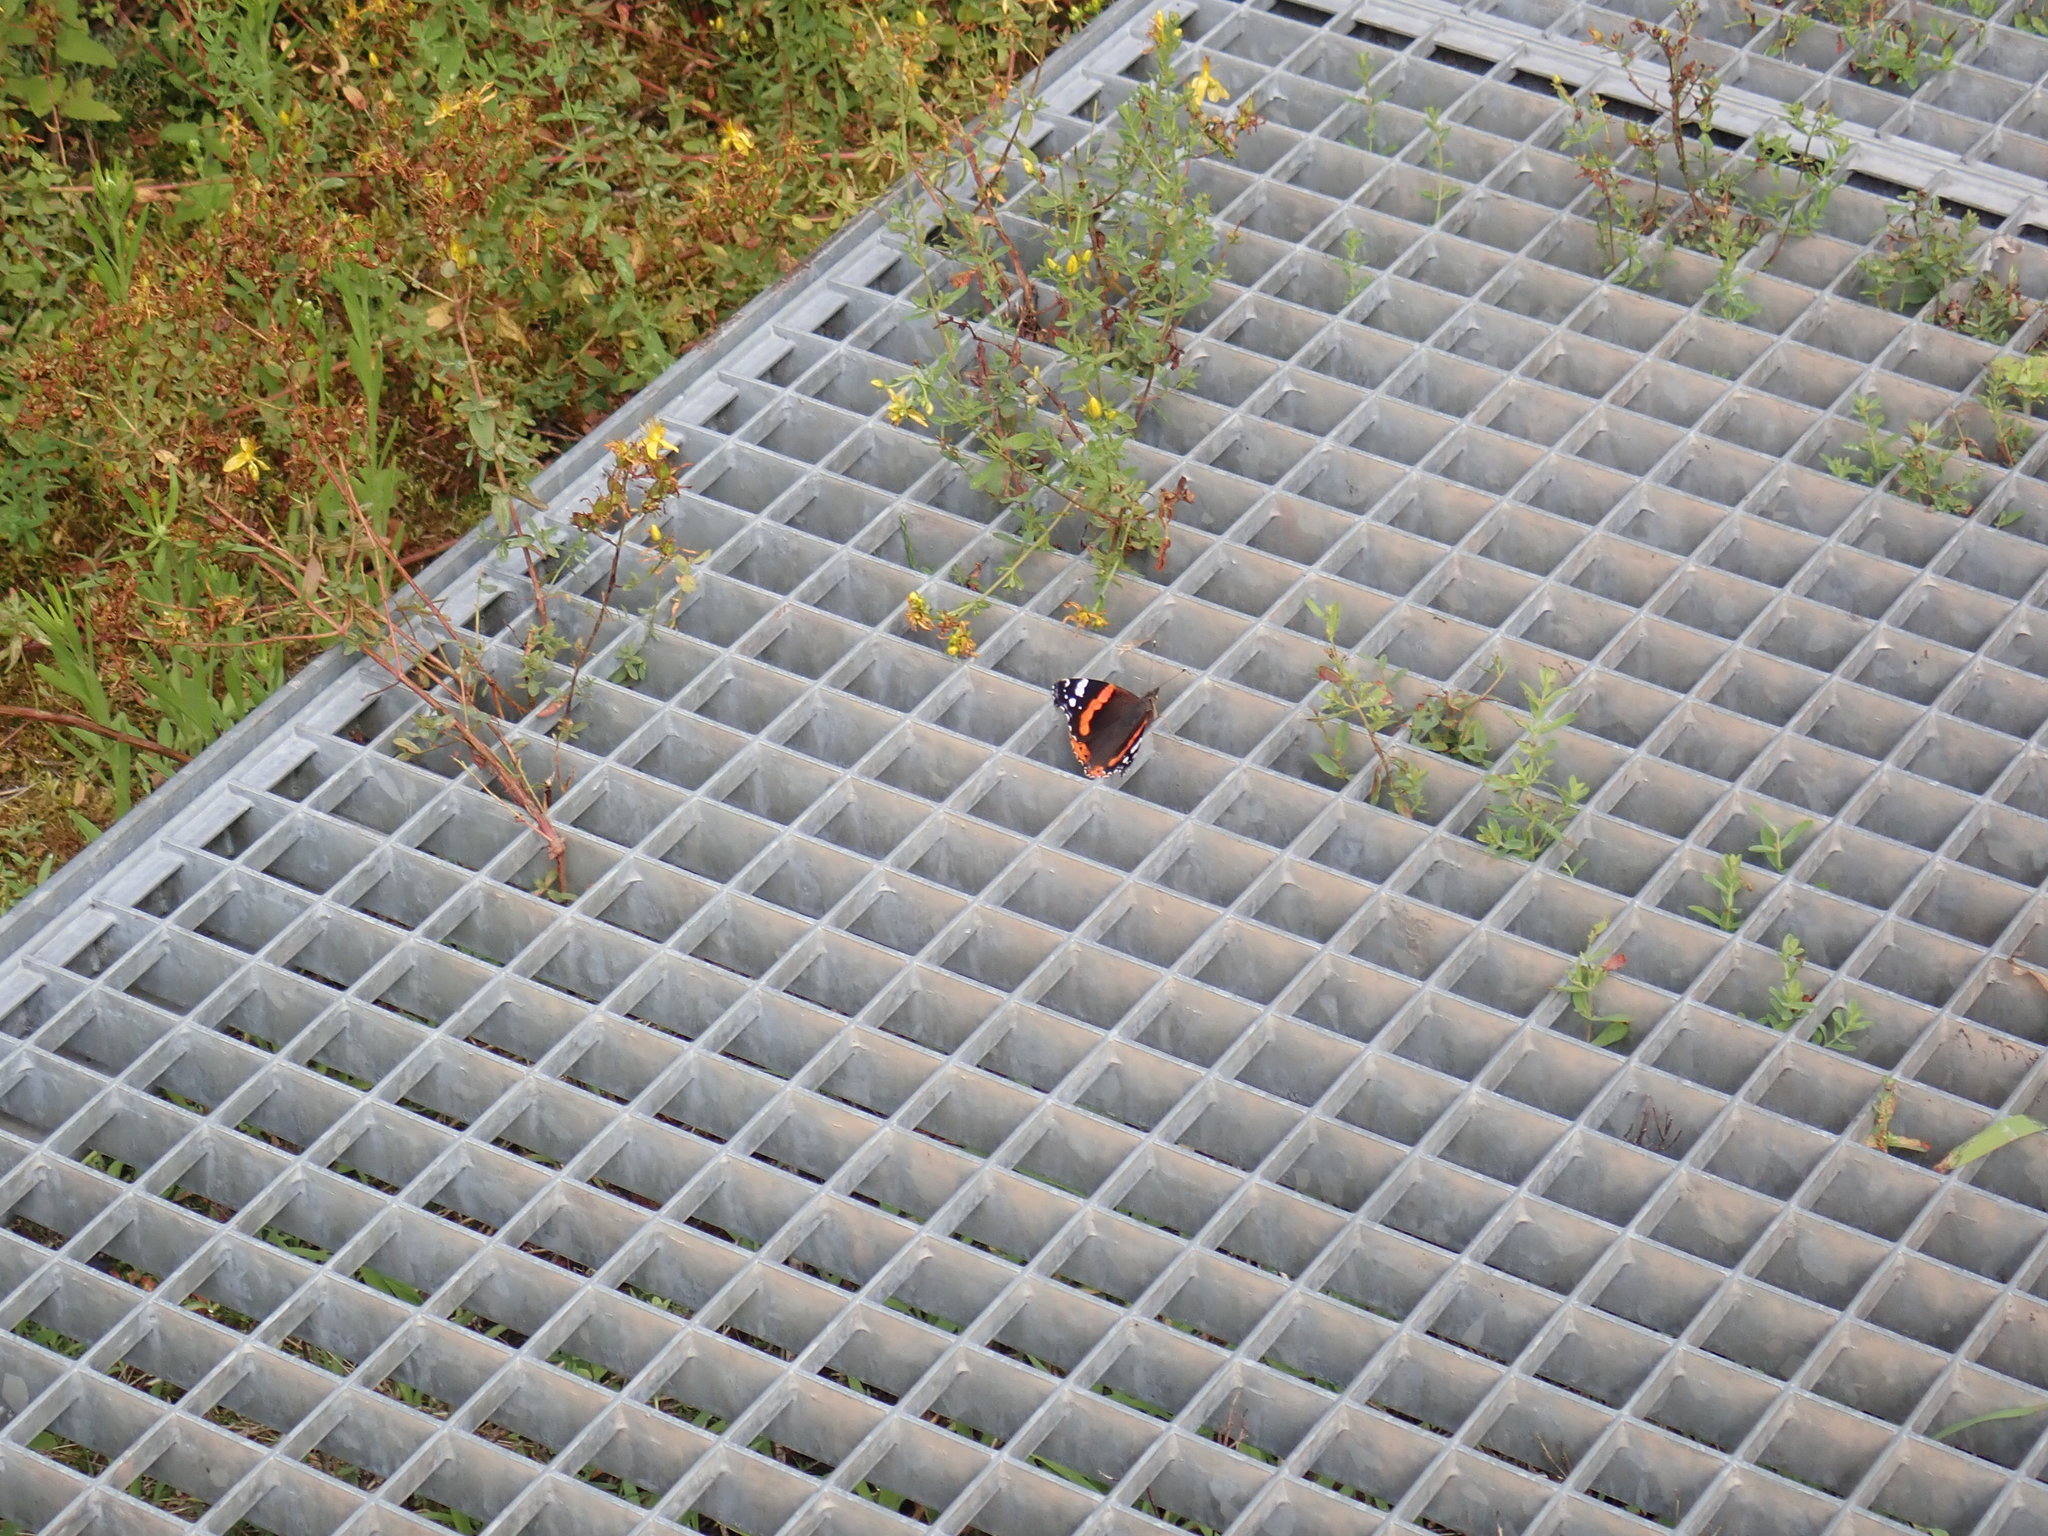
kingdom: Animalia
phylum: Arthropoda
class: Insecta
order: Lepidoptera
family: Nymphalidae
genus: Vanessa
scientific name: Vanessa atalanta
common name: Red admiral
